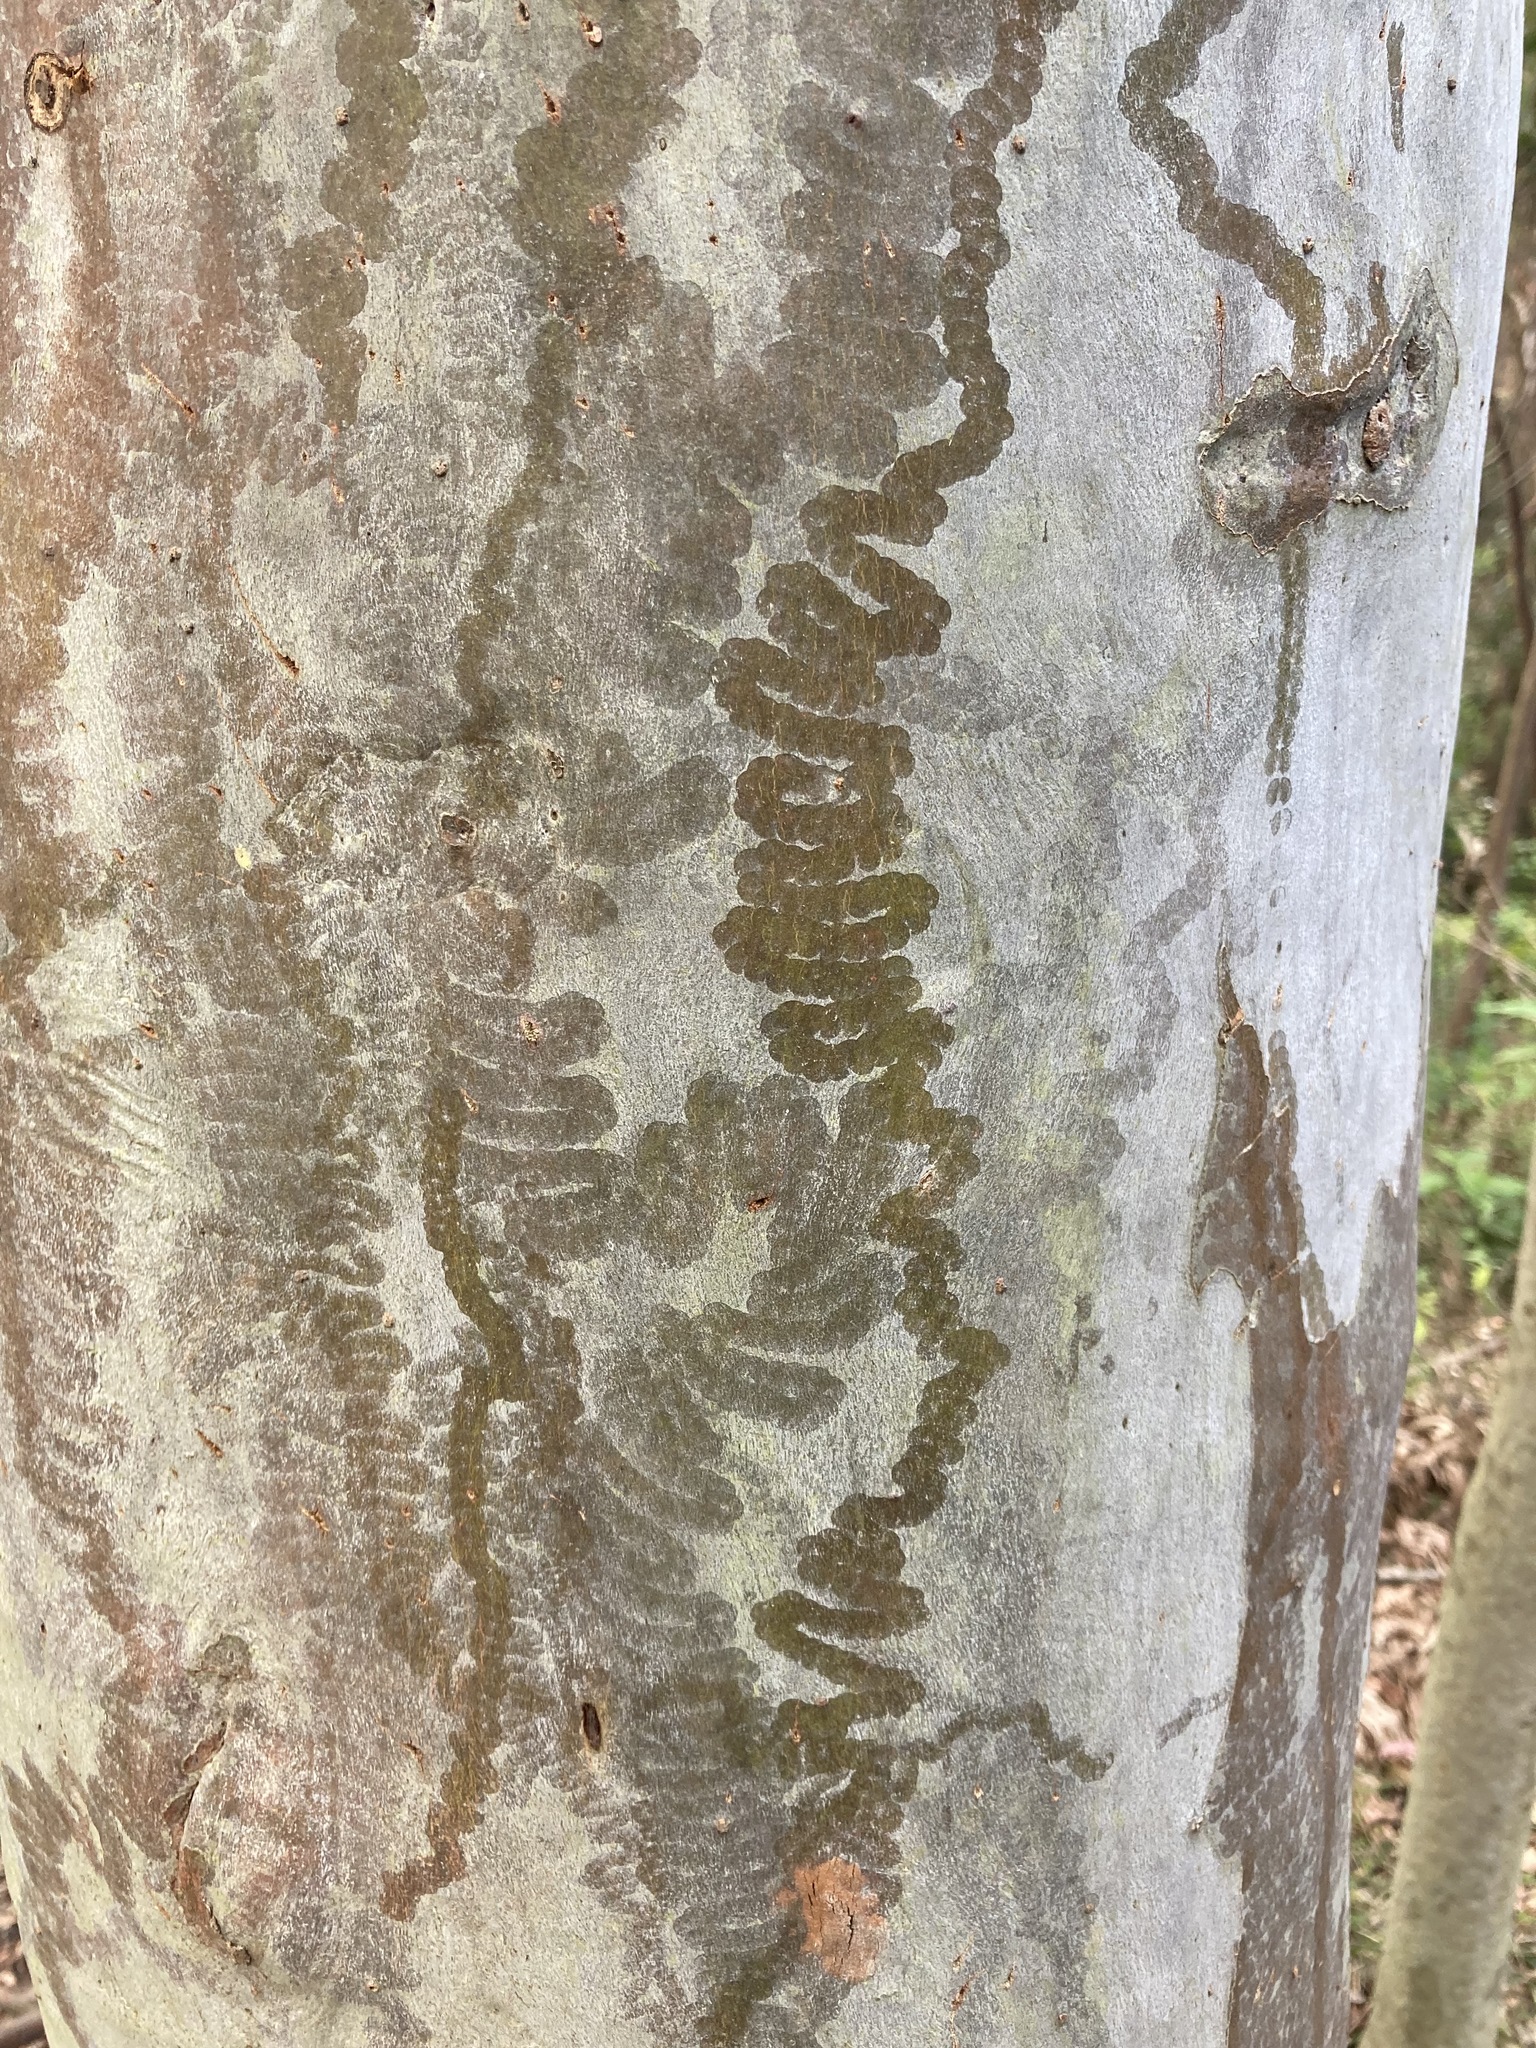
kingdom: Animalia
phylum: Mollusca
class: Gastropoda
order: Stylommatophora
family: Athoracophoridae
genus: Triboniophorus
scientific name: Triboniophorus graeffei
